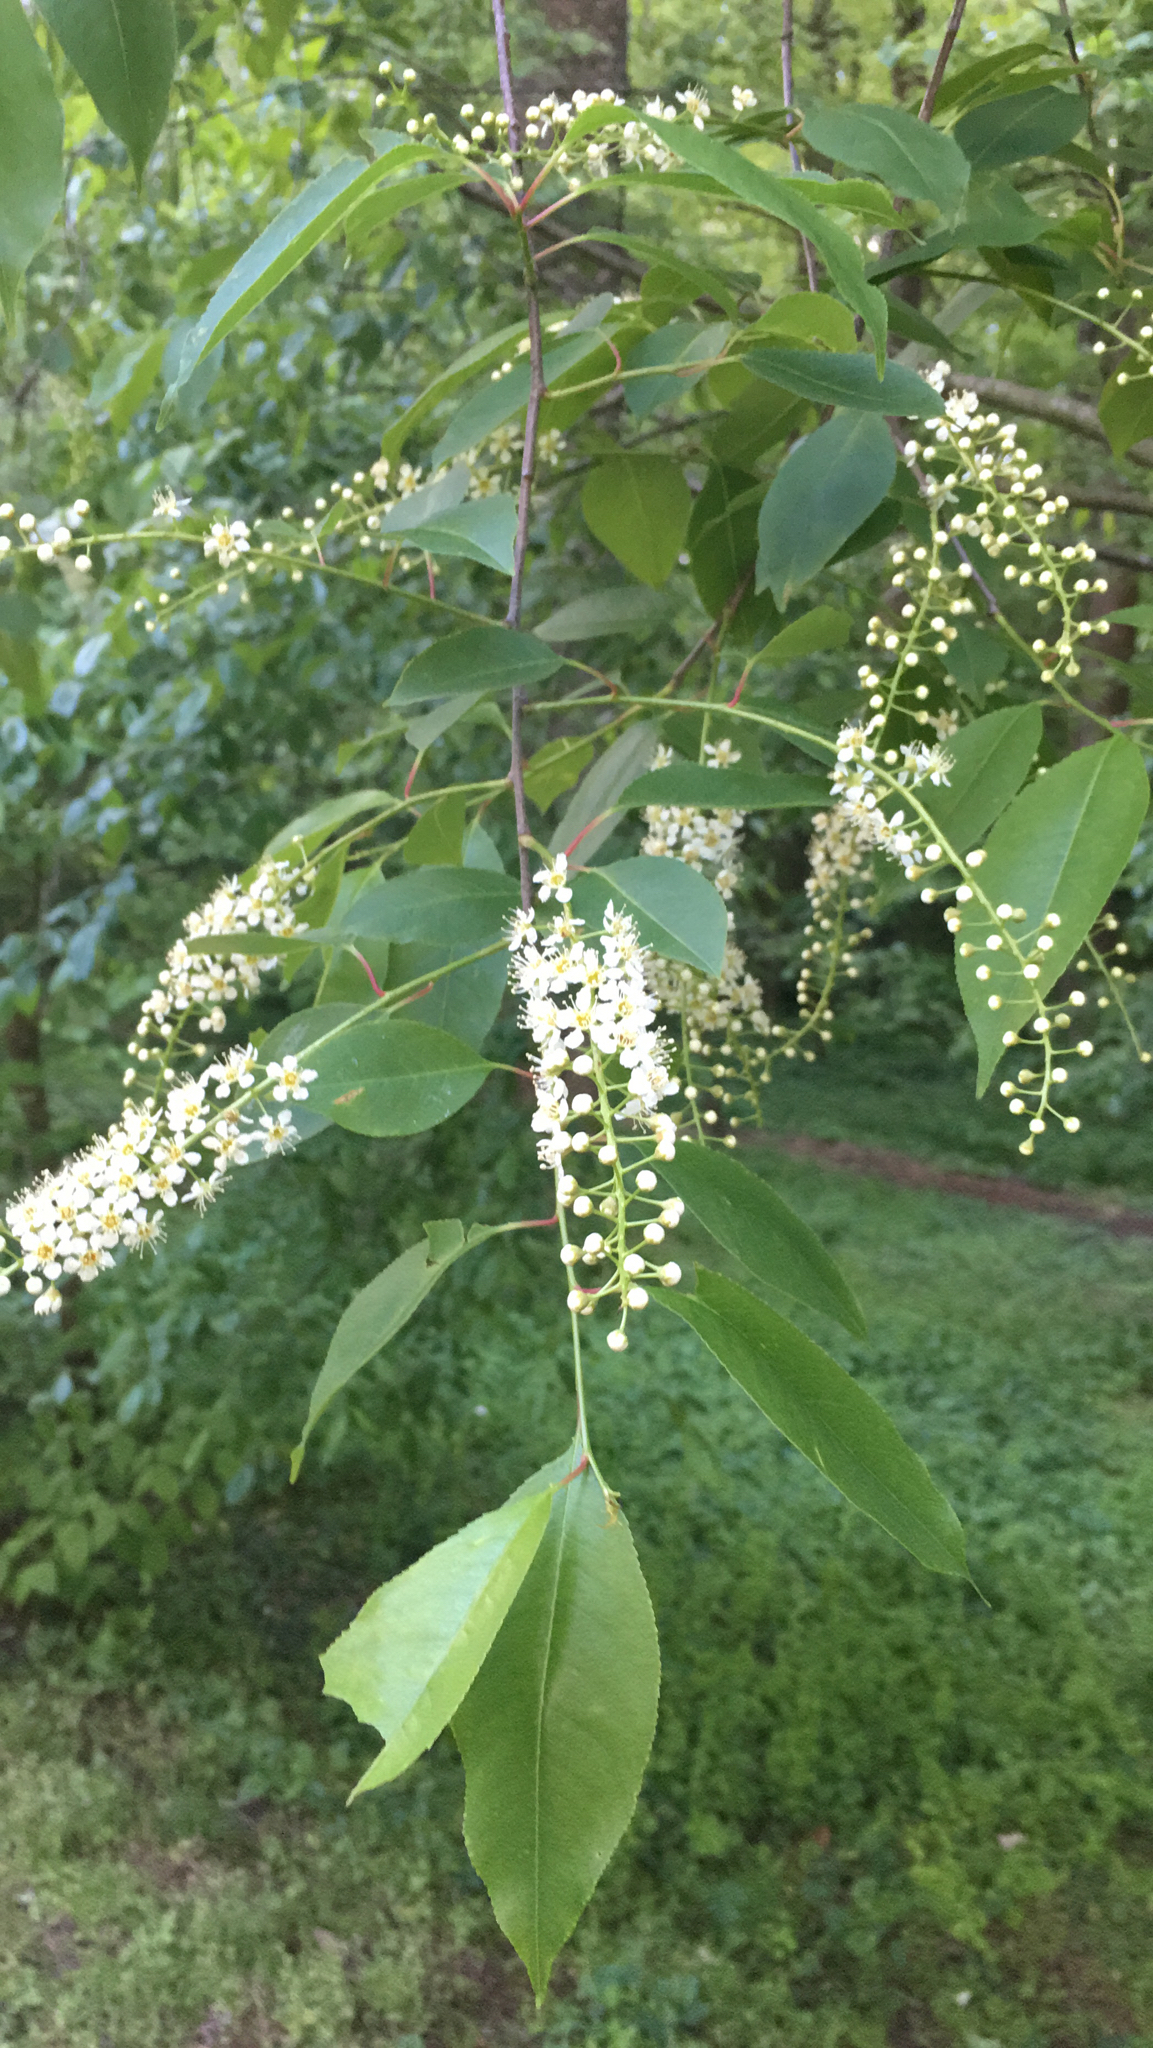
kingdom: Plantae
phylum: Tracheophyta
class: Magnoliopsida
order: Rosales
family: Rosaceae
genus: Prunus
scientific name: Prunus serotina
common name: Black cherry
